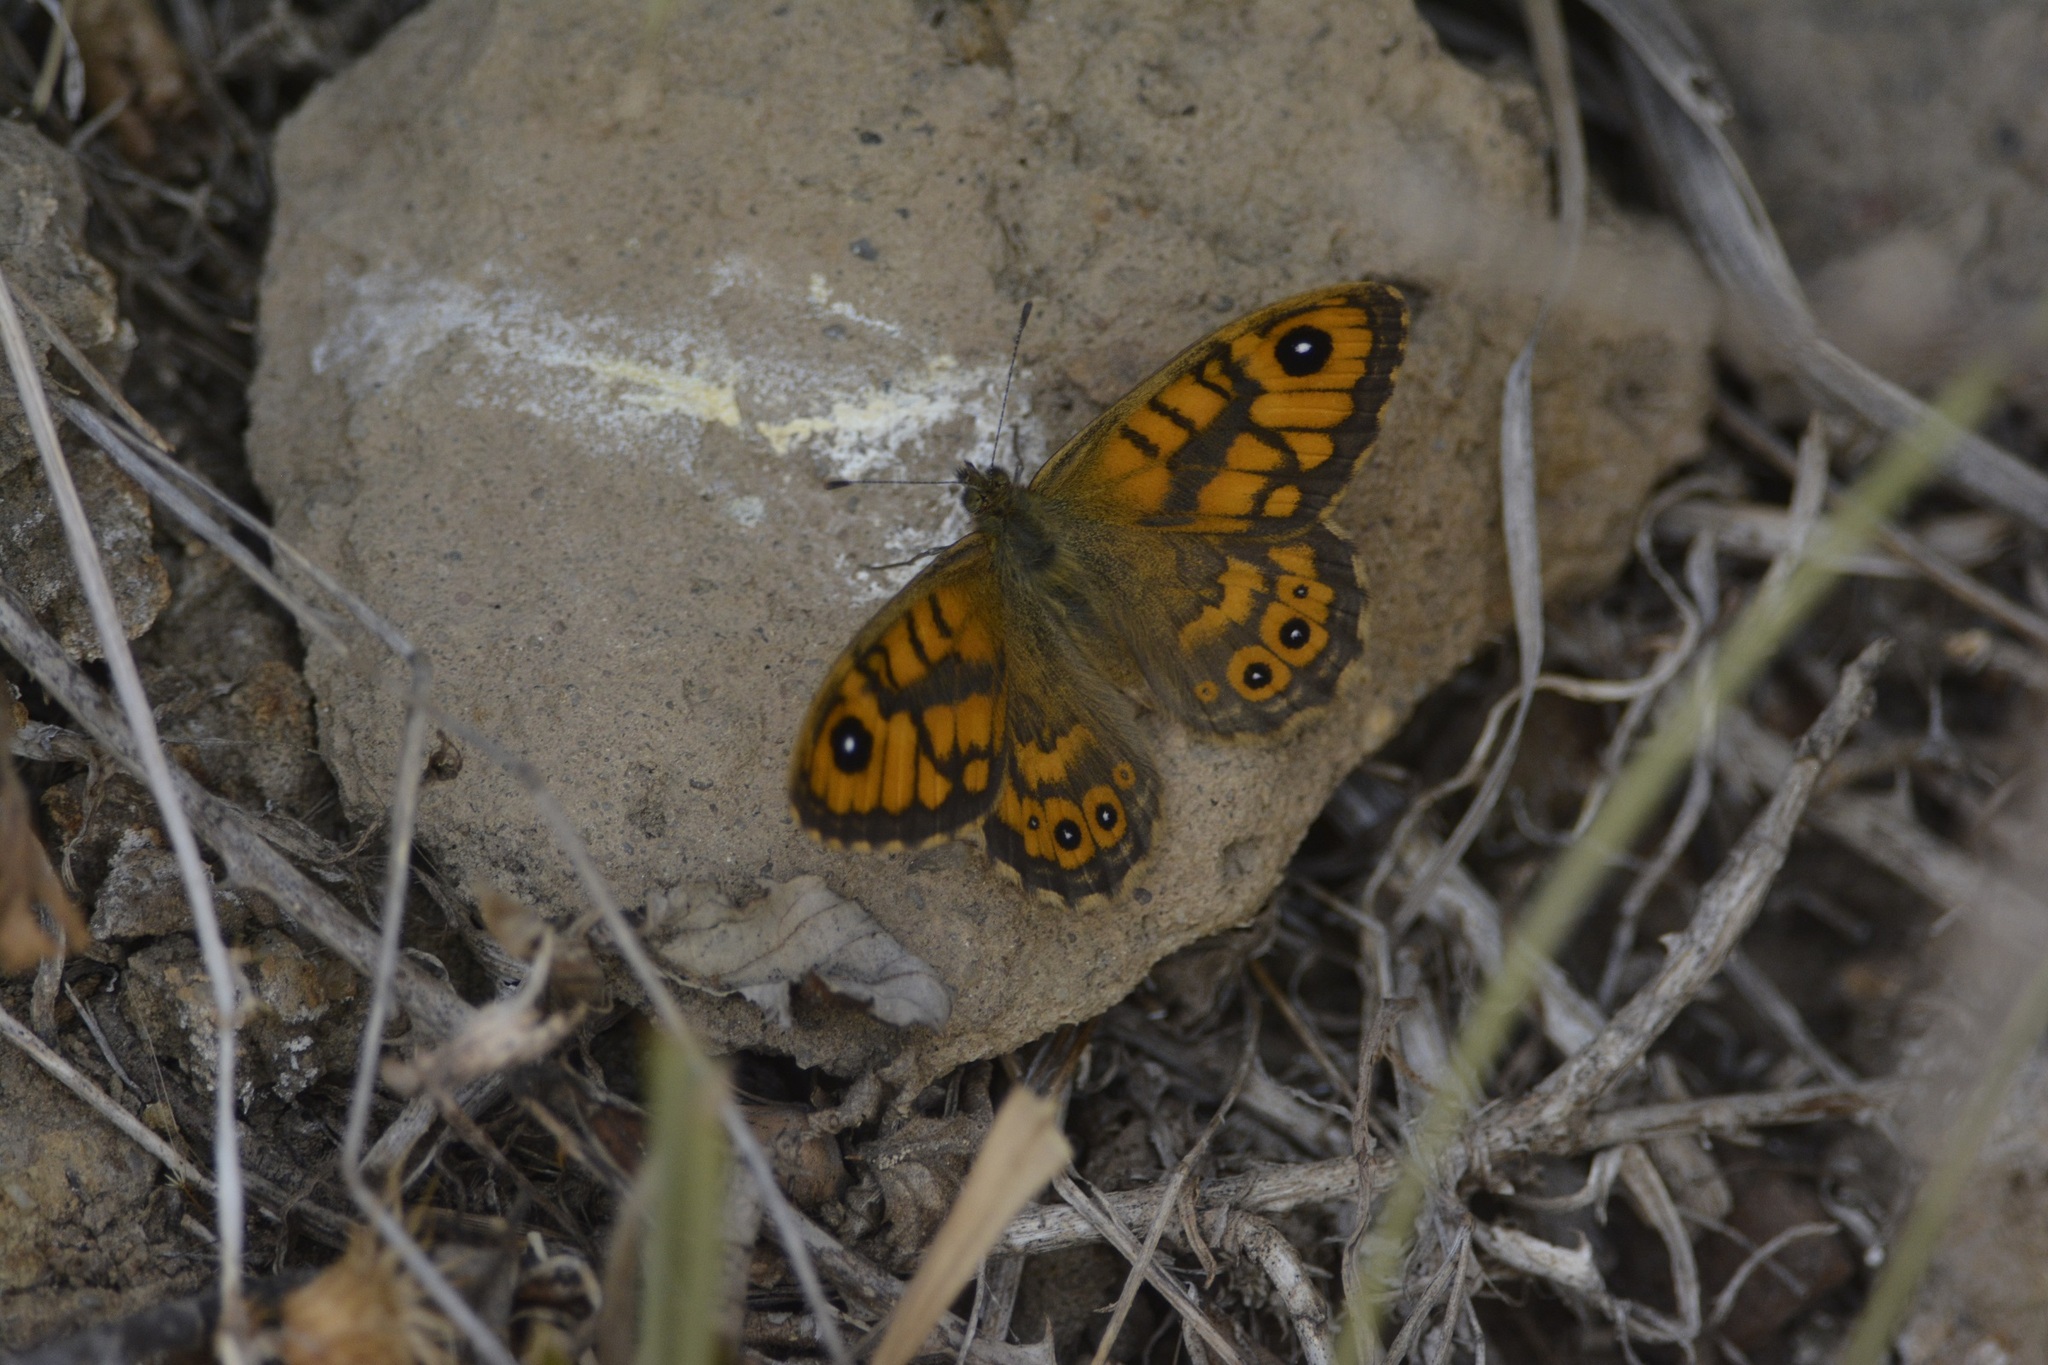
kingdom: Animalia
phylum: Arthropoda
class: Insecta
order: Lepidoptera
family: Nymphalidae
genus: Pararge
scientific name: Pararge Lasiommata megera
